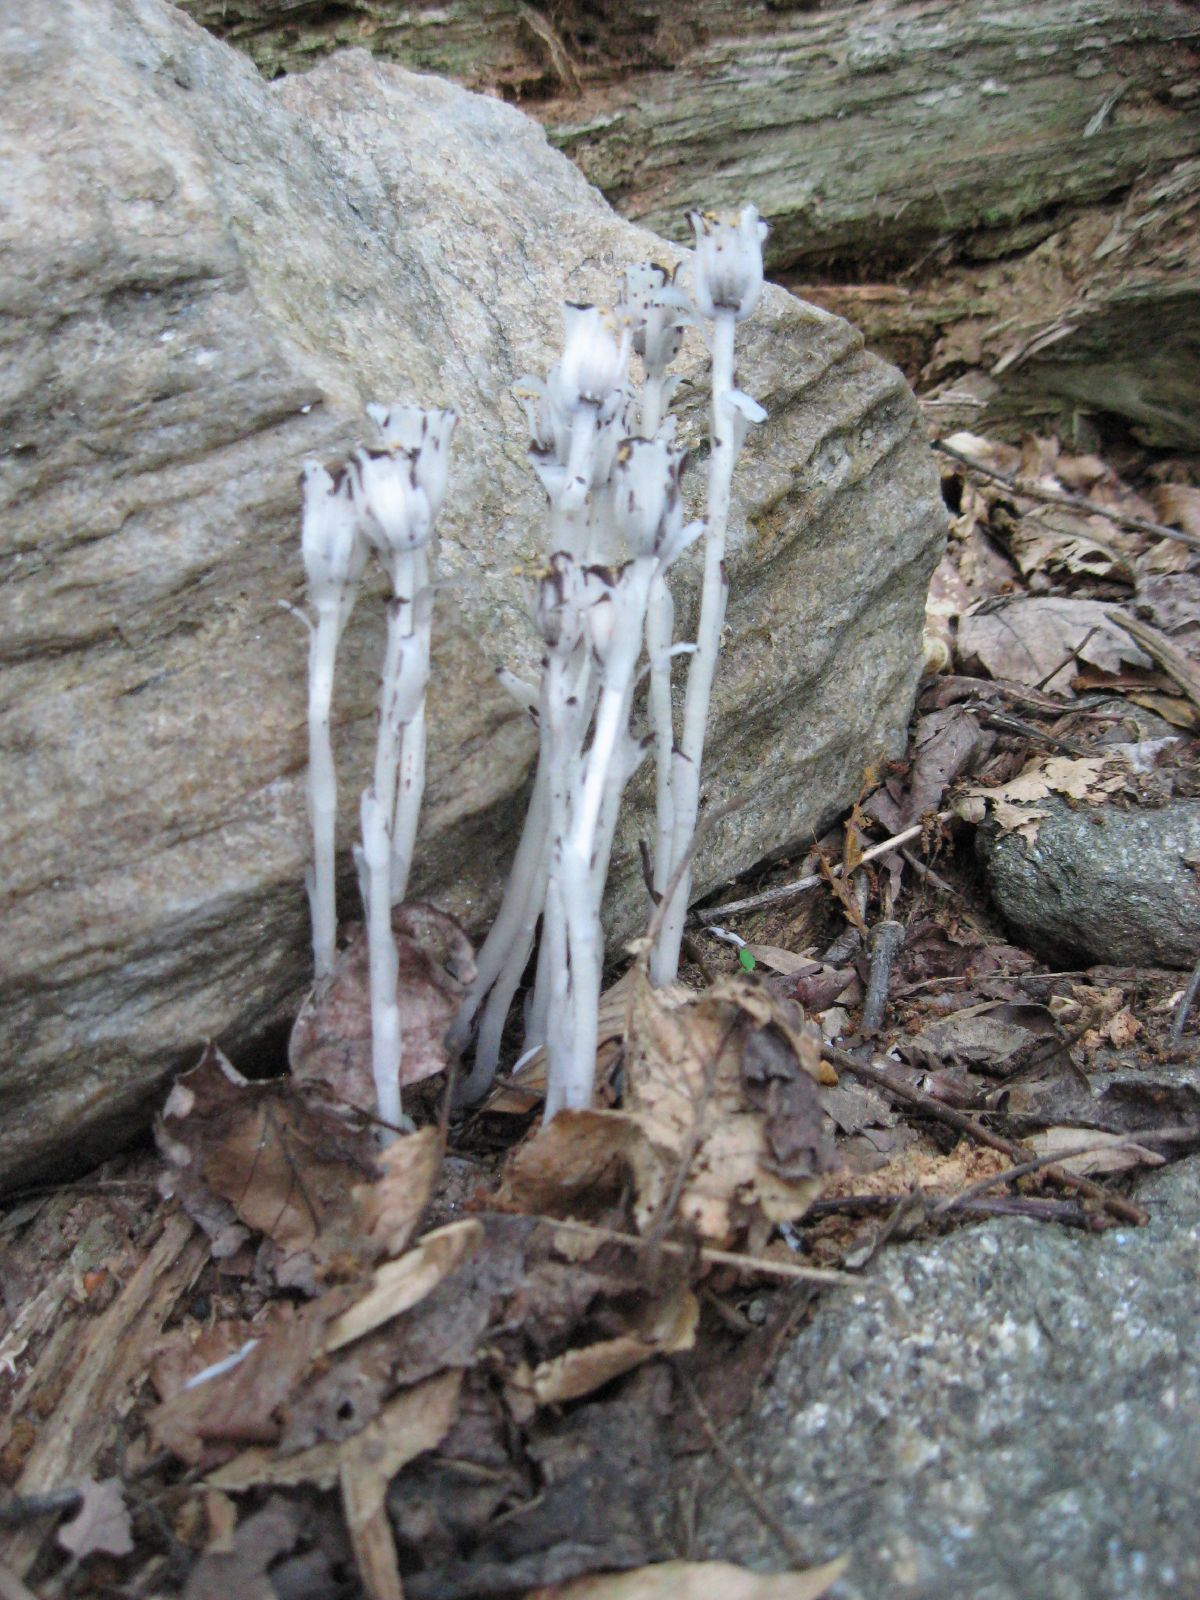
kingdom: Plantae
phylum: Tracheophyta
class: Magnoliopsida
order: Ericales
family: Ericaceae
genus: Monotropa
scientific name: Monotropa uniflora
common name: Convulsion root
